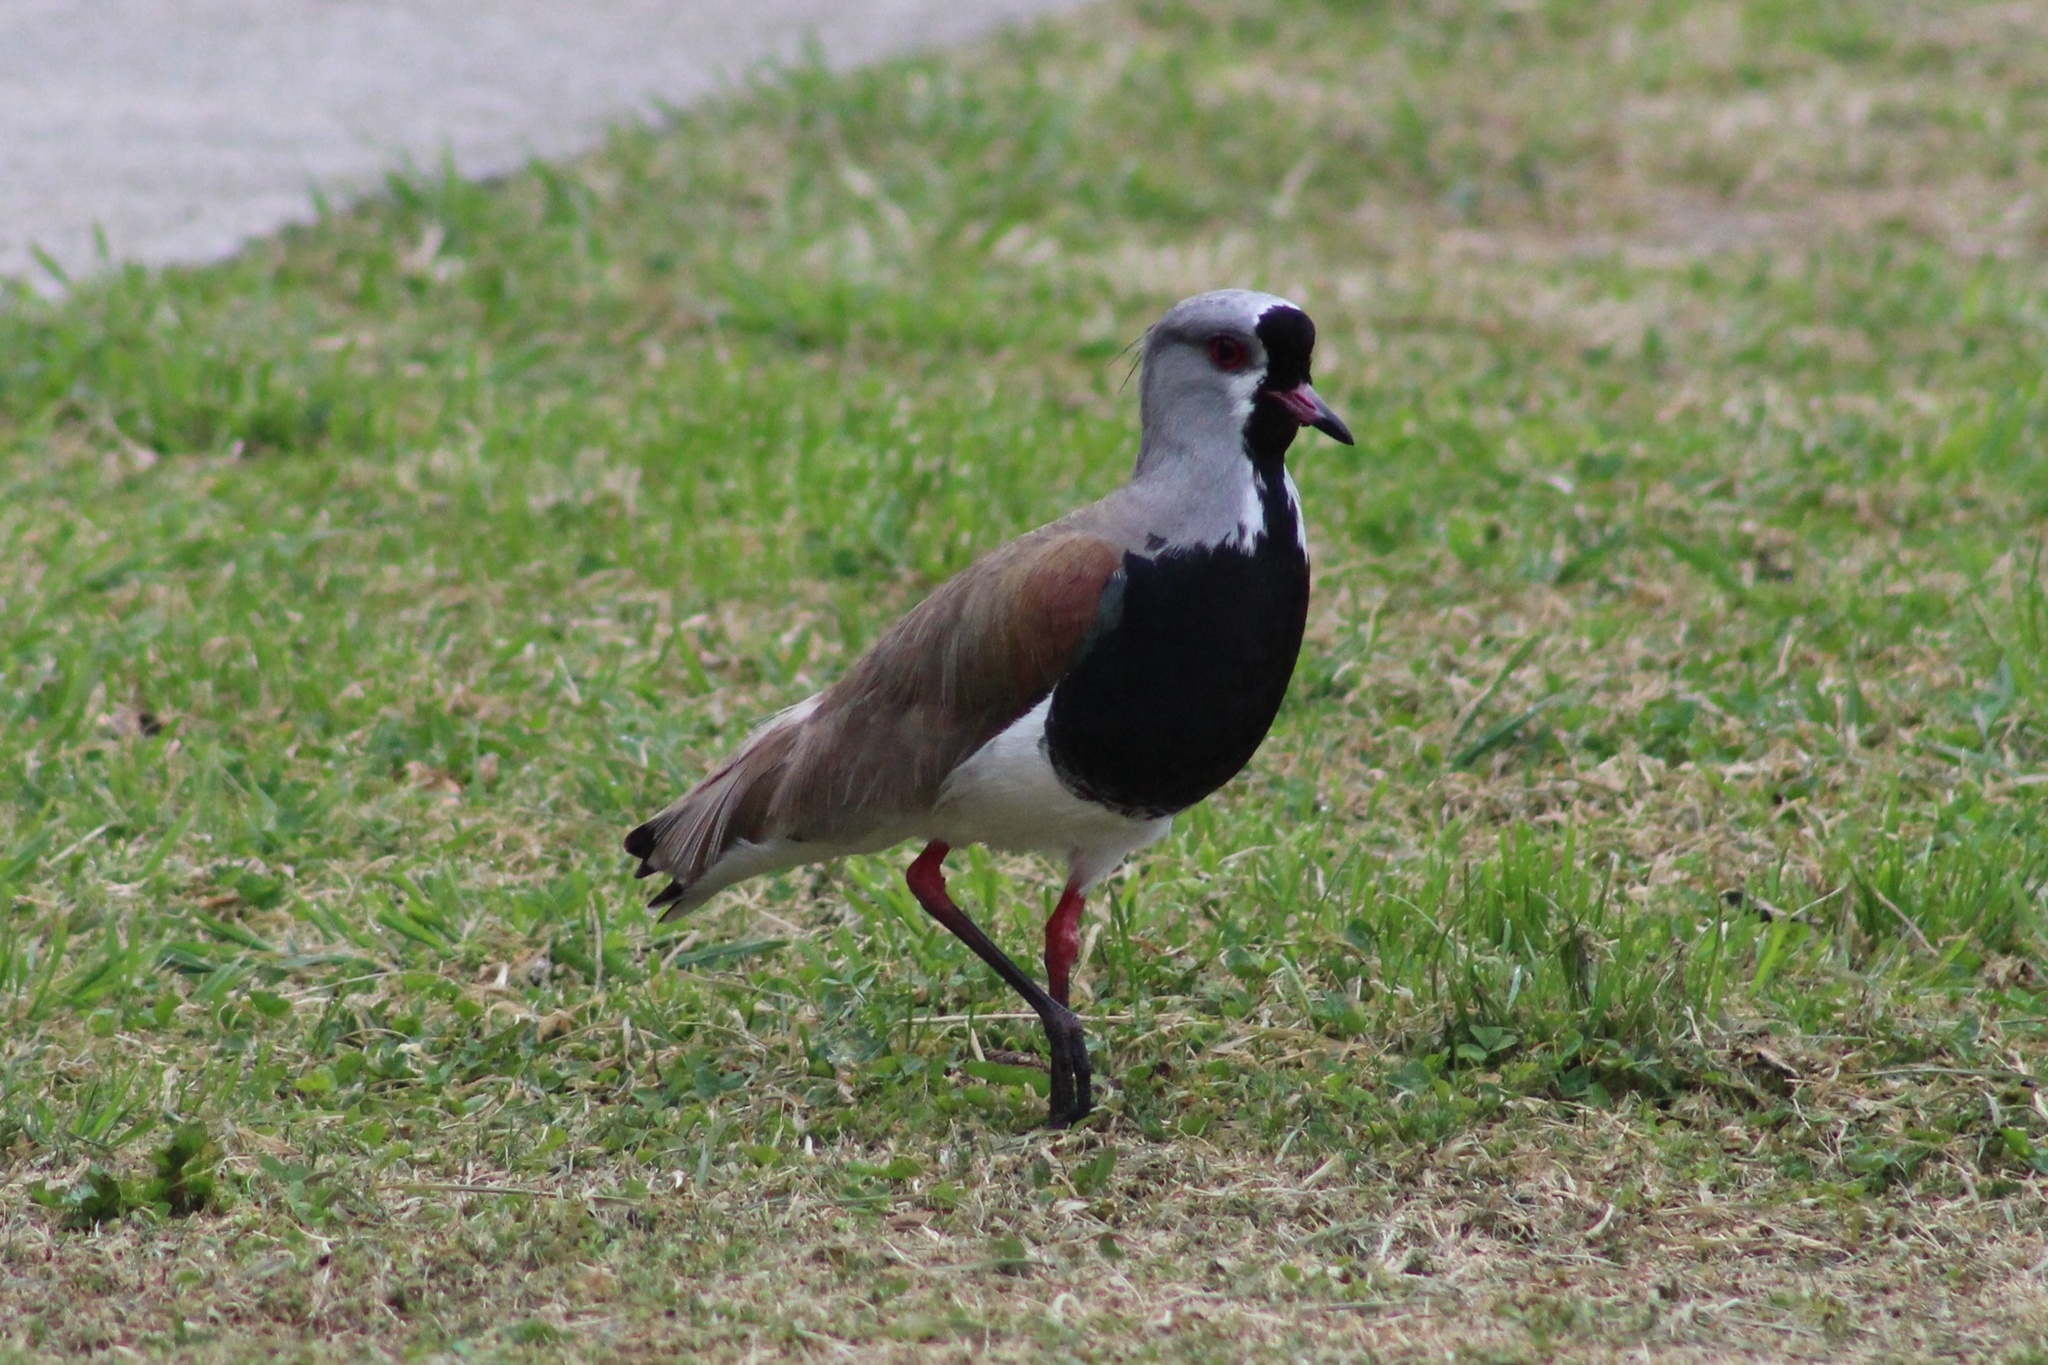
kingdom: Animalia
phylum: Chordata
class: Aves
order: Charadriiformes
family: Charadriidae
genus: Vanellus
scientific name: Vanellus chilensis
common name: Southern lapwing
